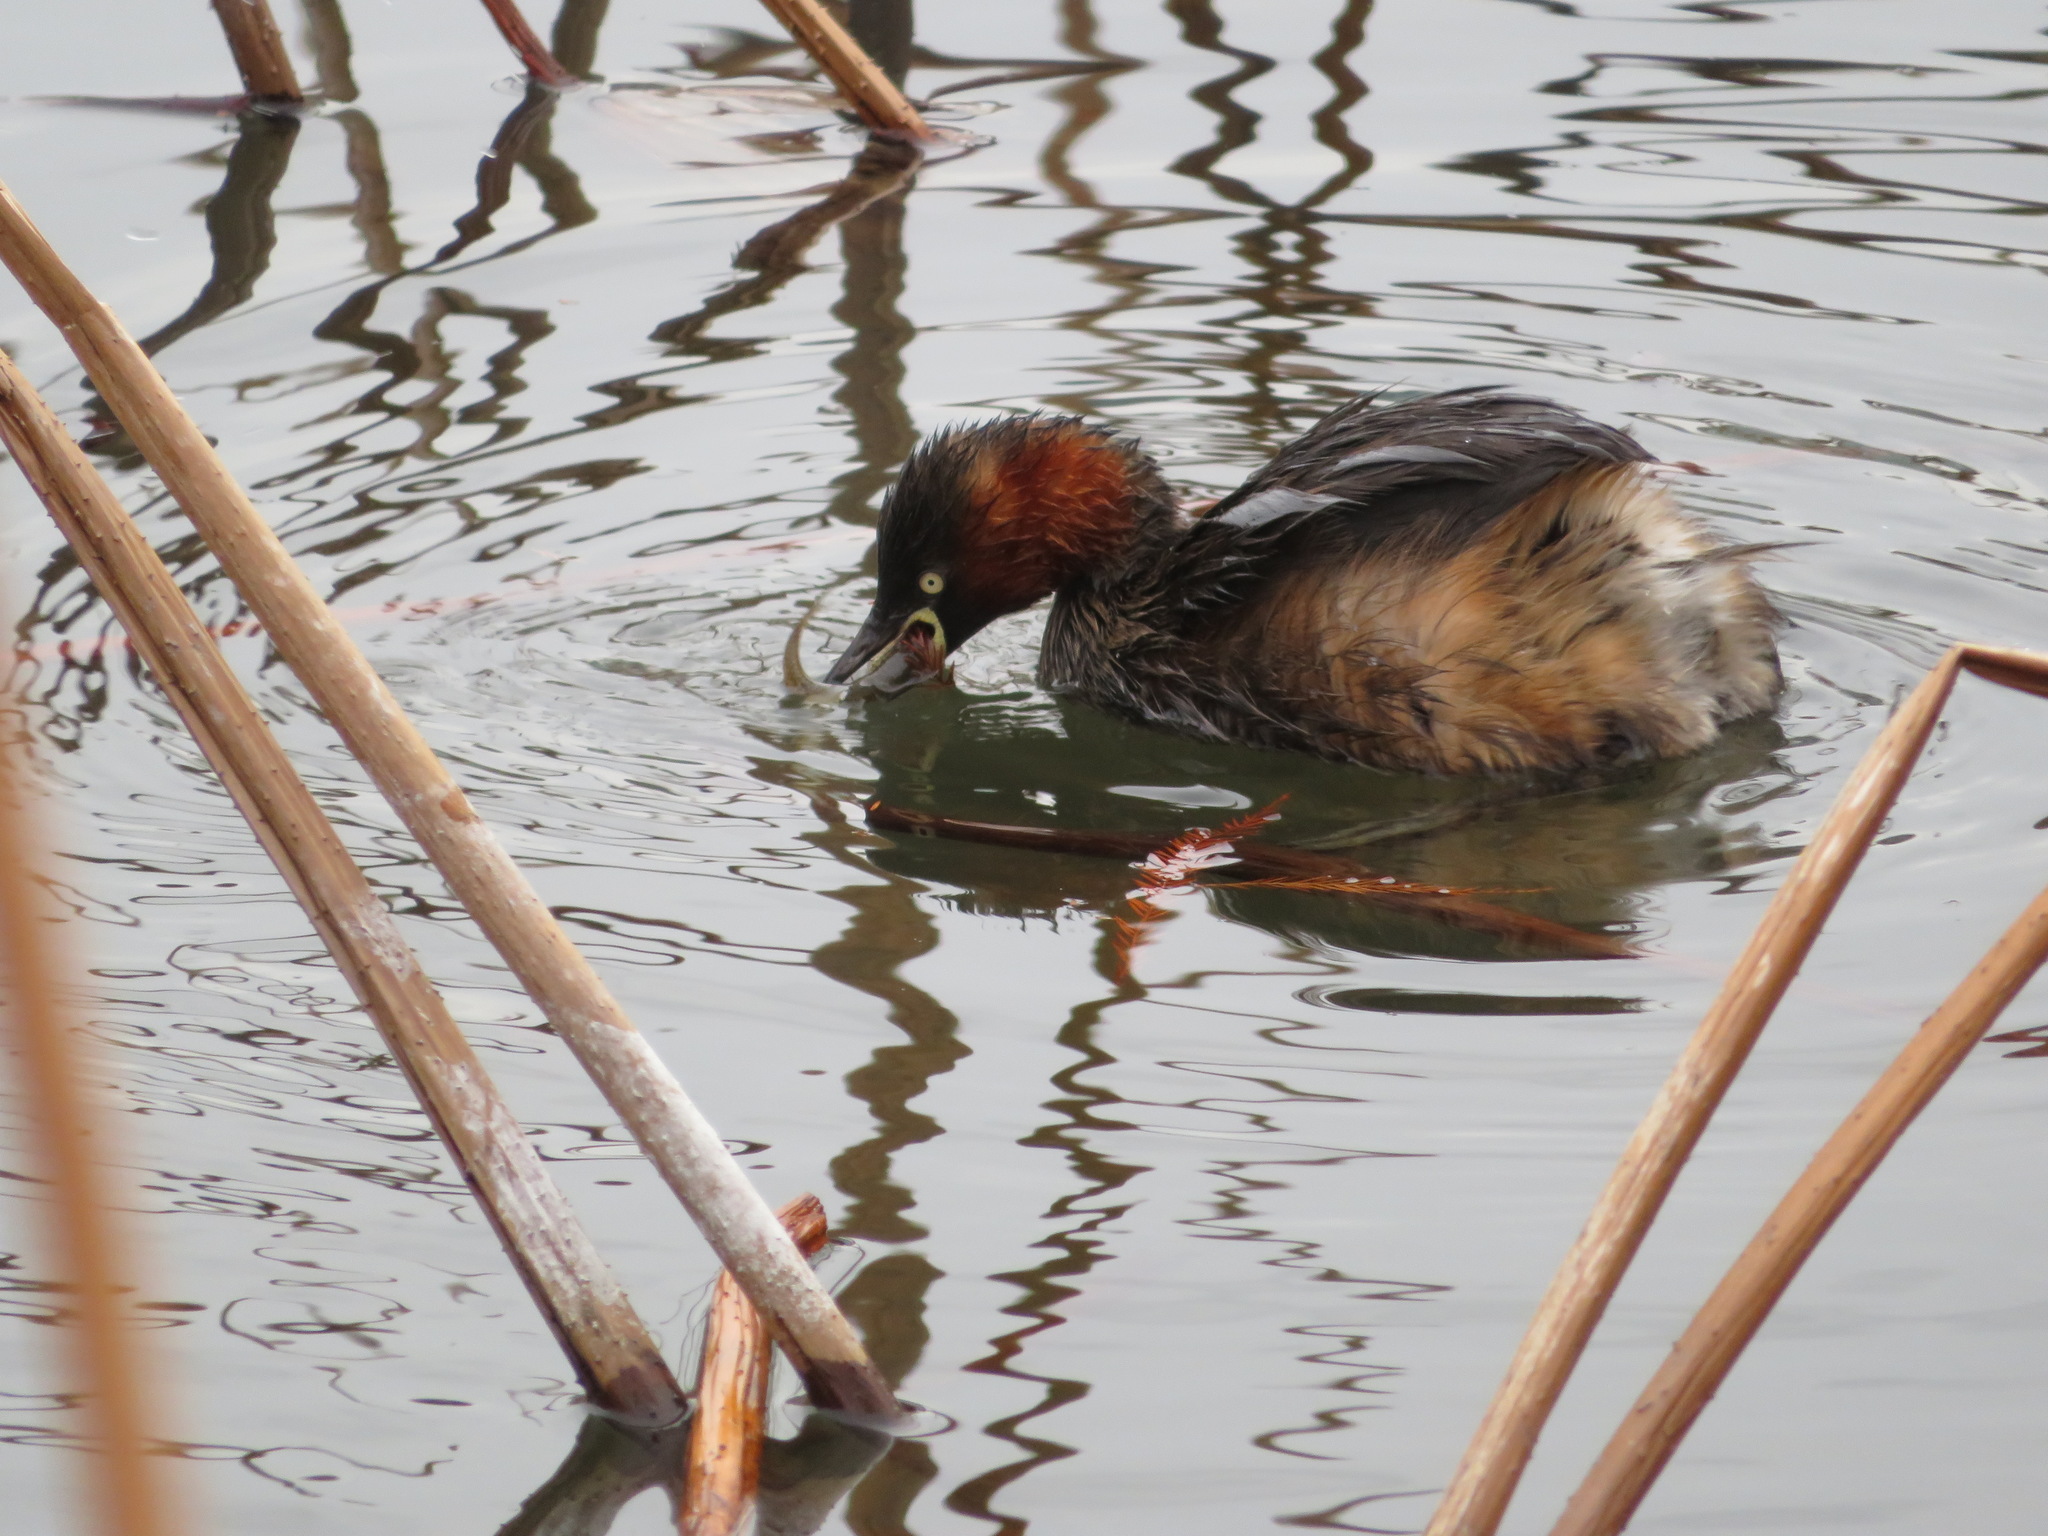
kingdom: Animalia
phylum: Chordata
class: Aves
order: Podicipediformes
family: Podicipedidae
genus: Tachybaptus
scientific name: Tachybaptus ruficollis
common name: Little grebe
